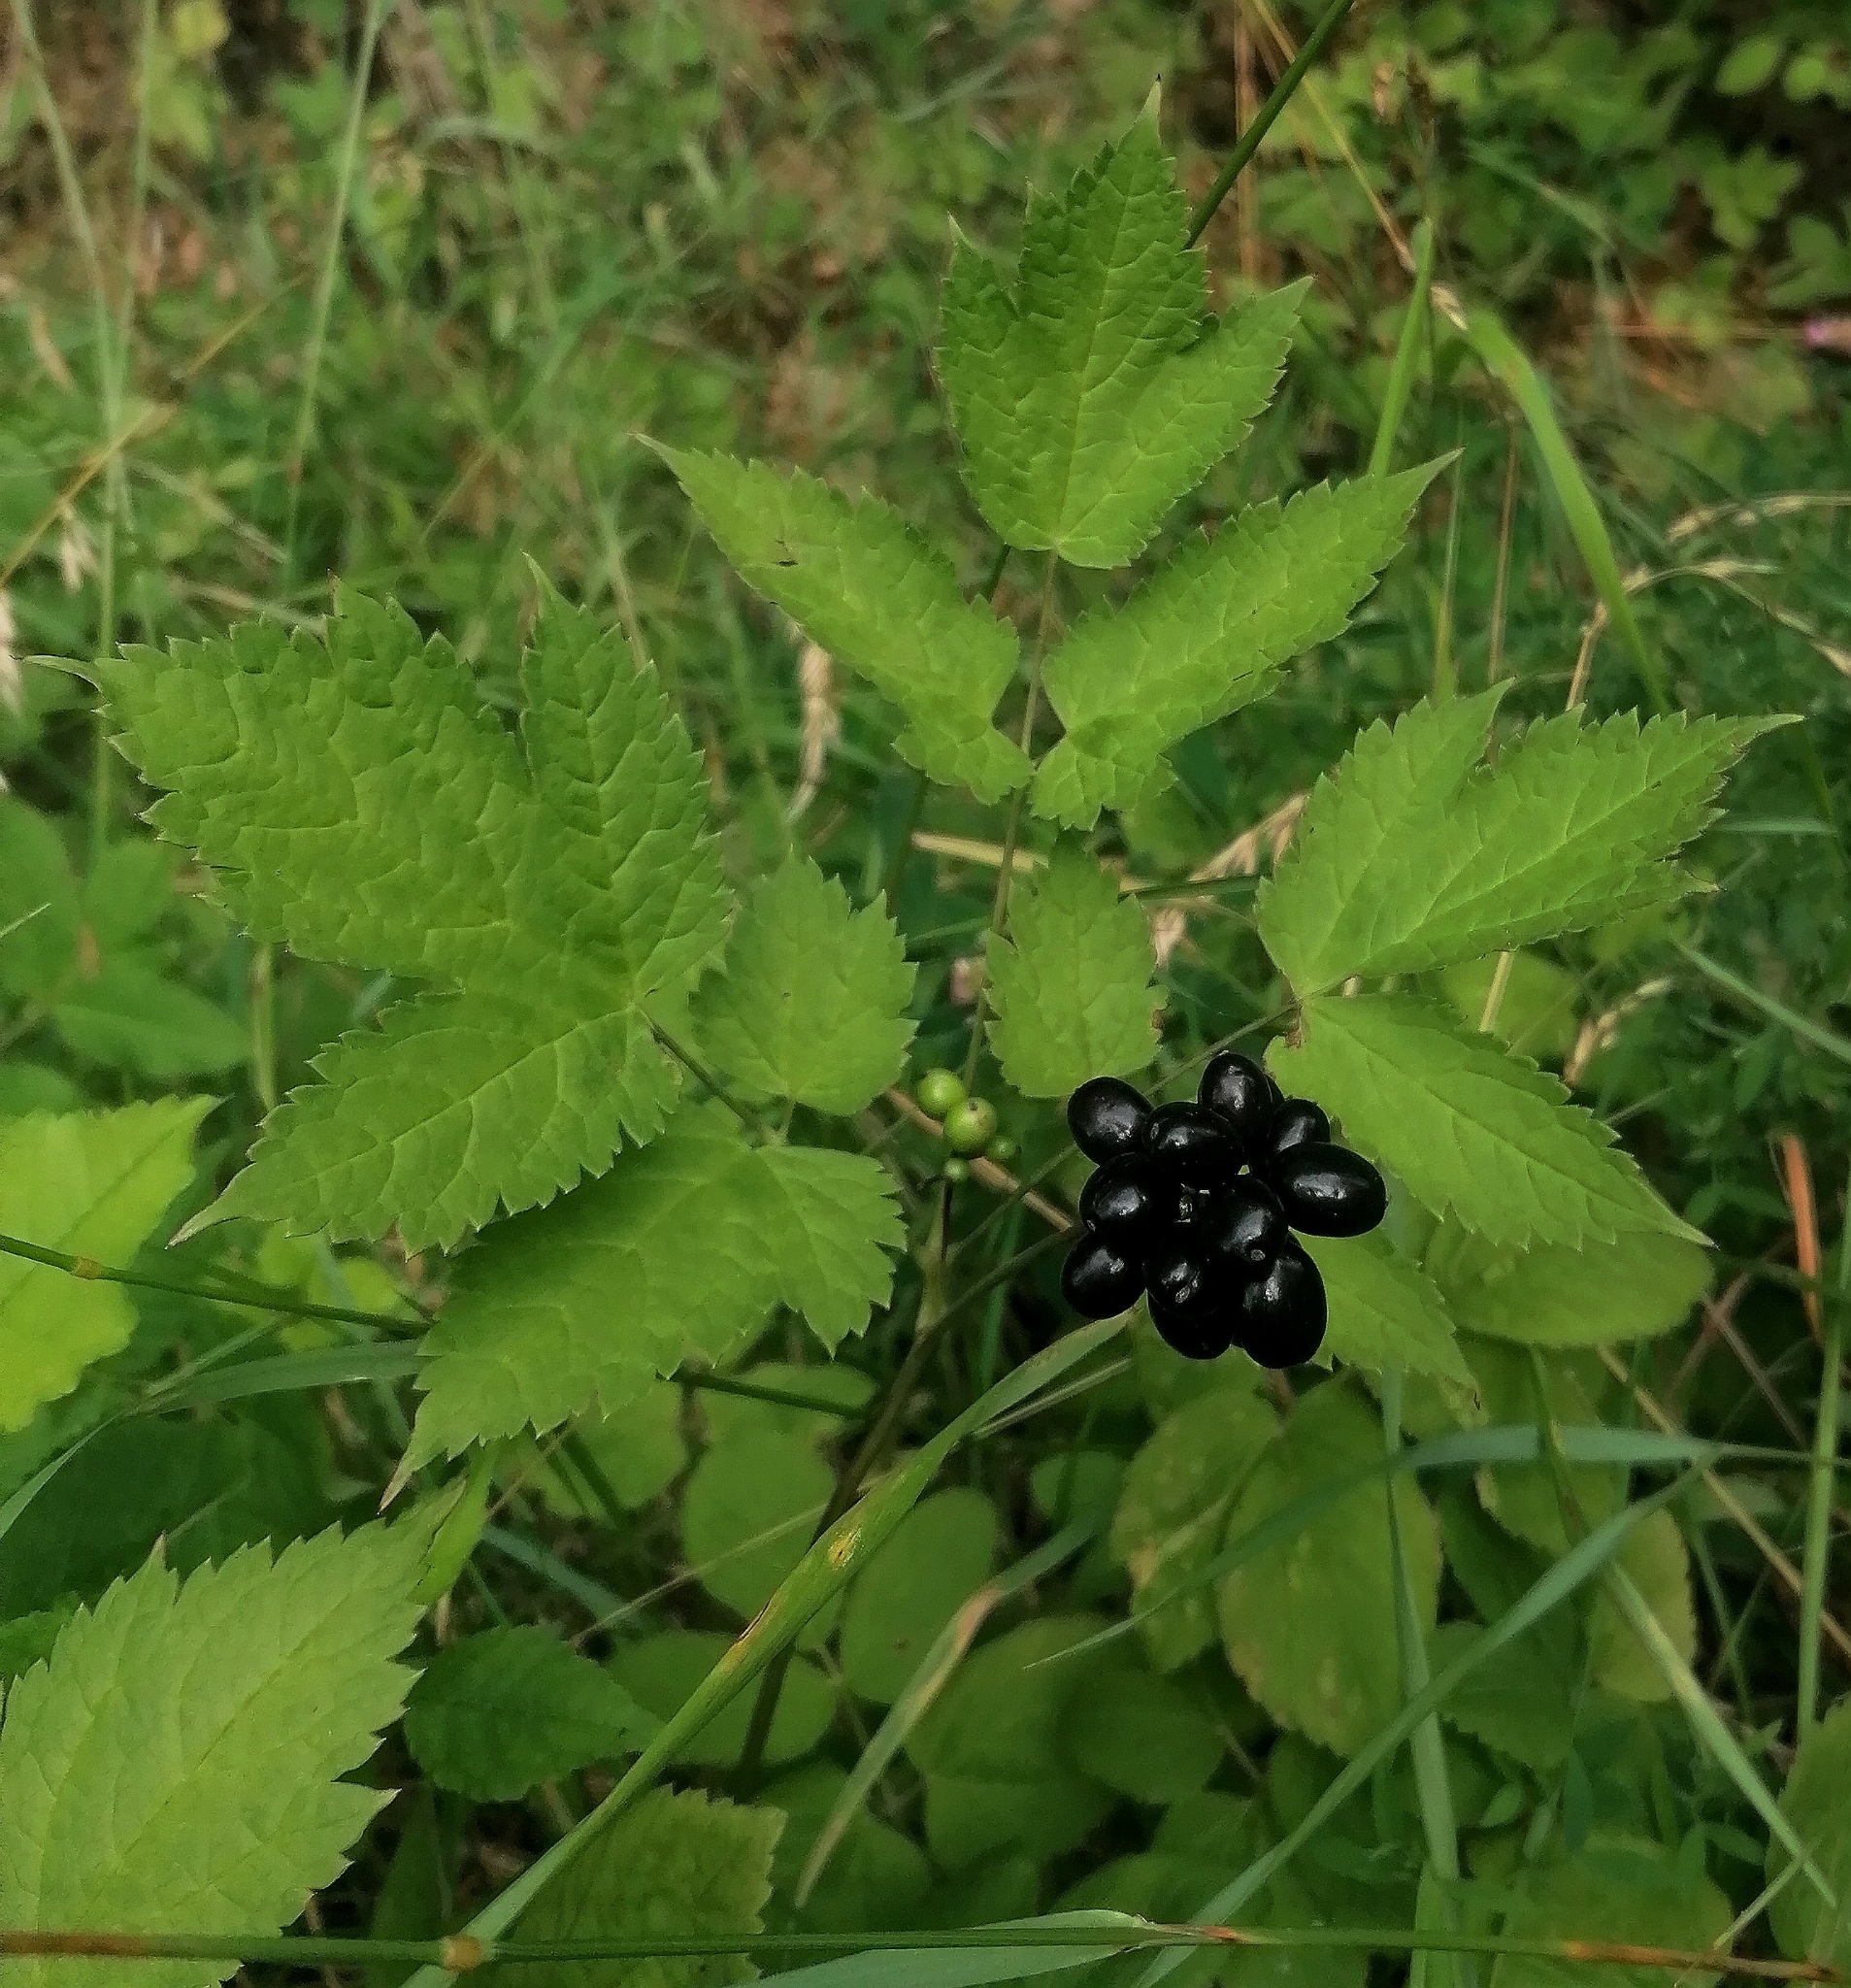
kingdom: Plantae
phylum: Tracheophyta
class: Magnoliopsida
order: Ranunculales
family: Ranunculaceae
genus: Actaea
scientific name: Actaea spicata
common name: Baneberry
